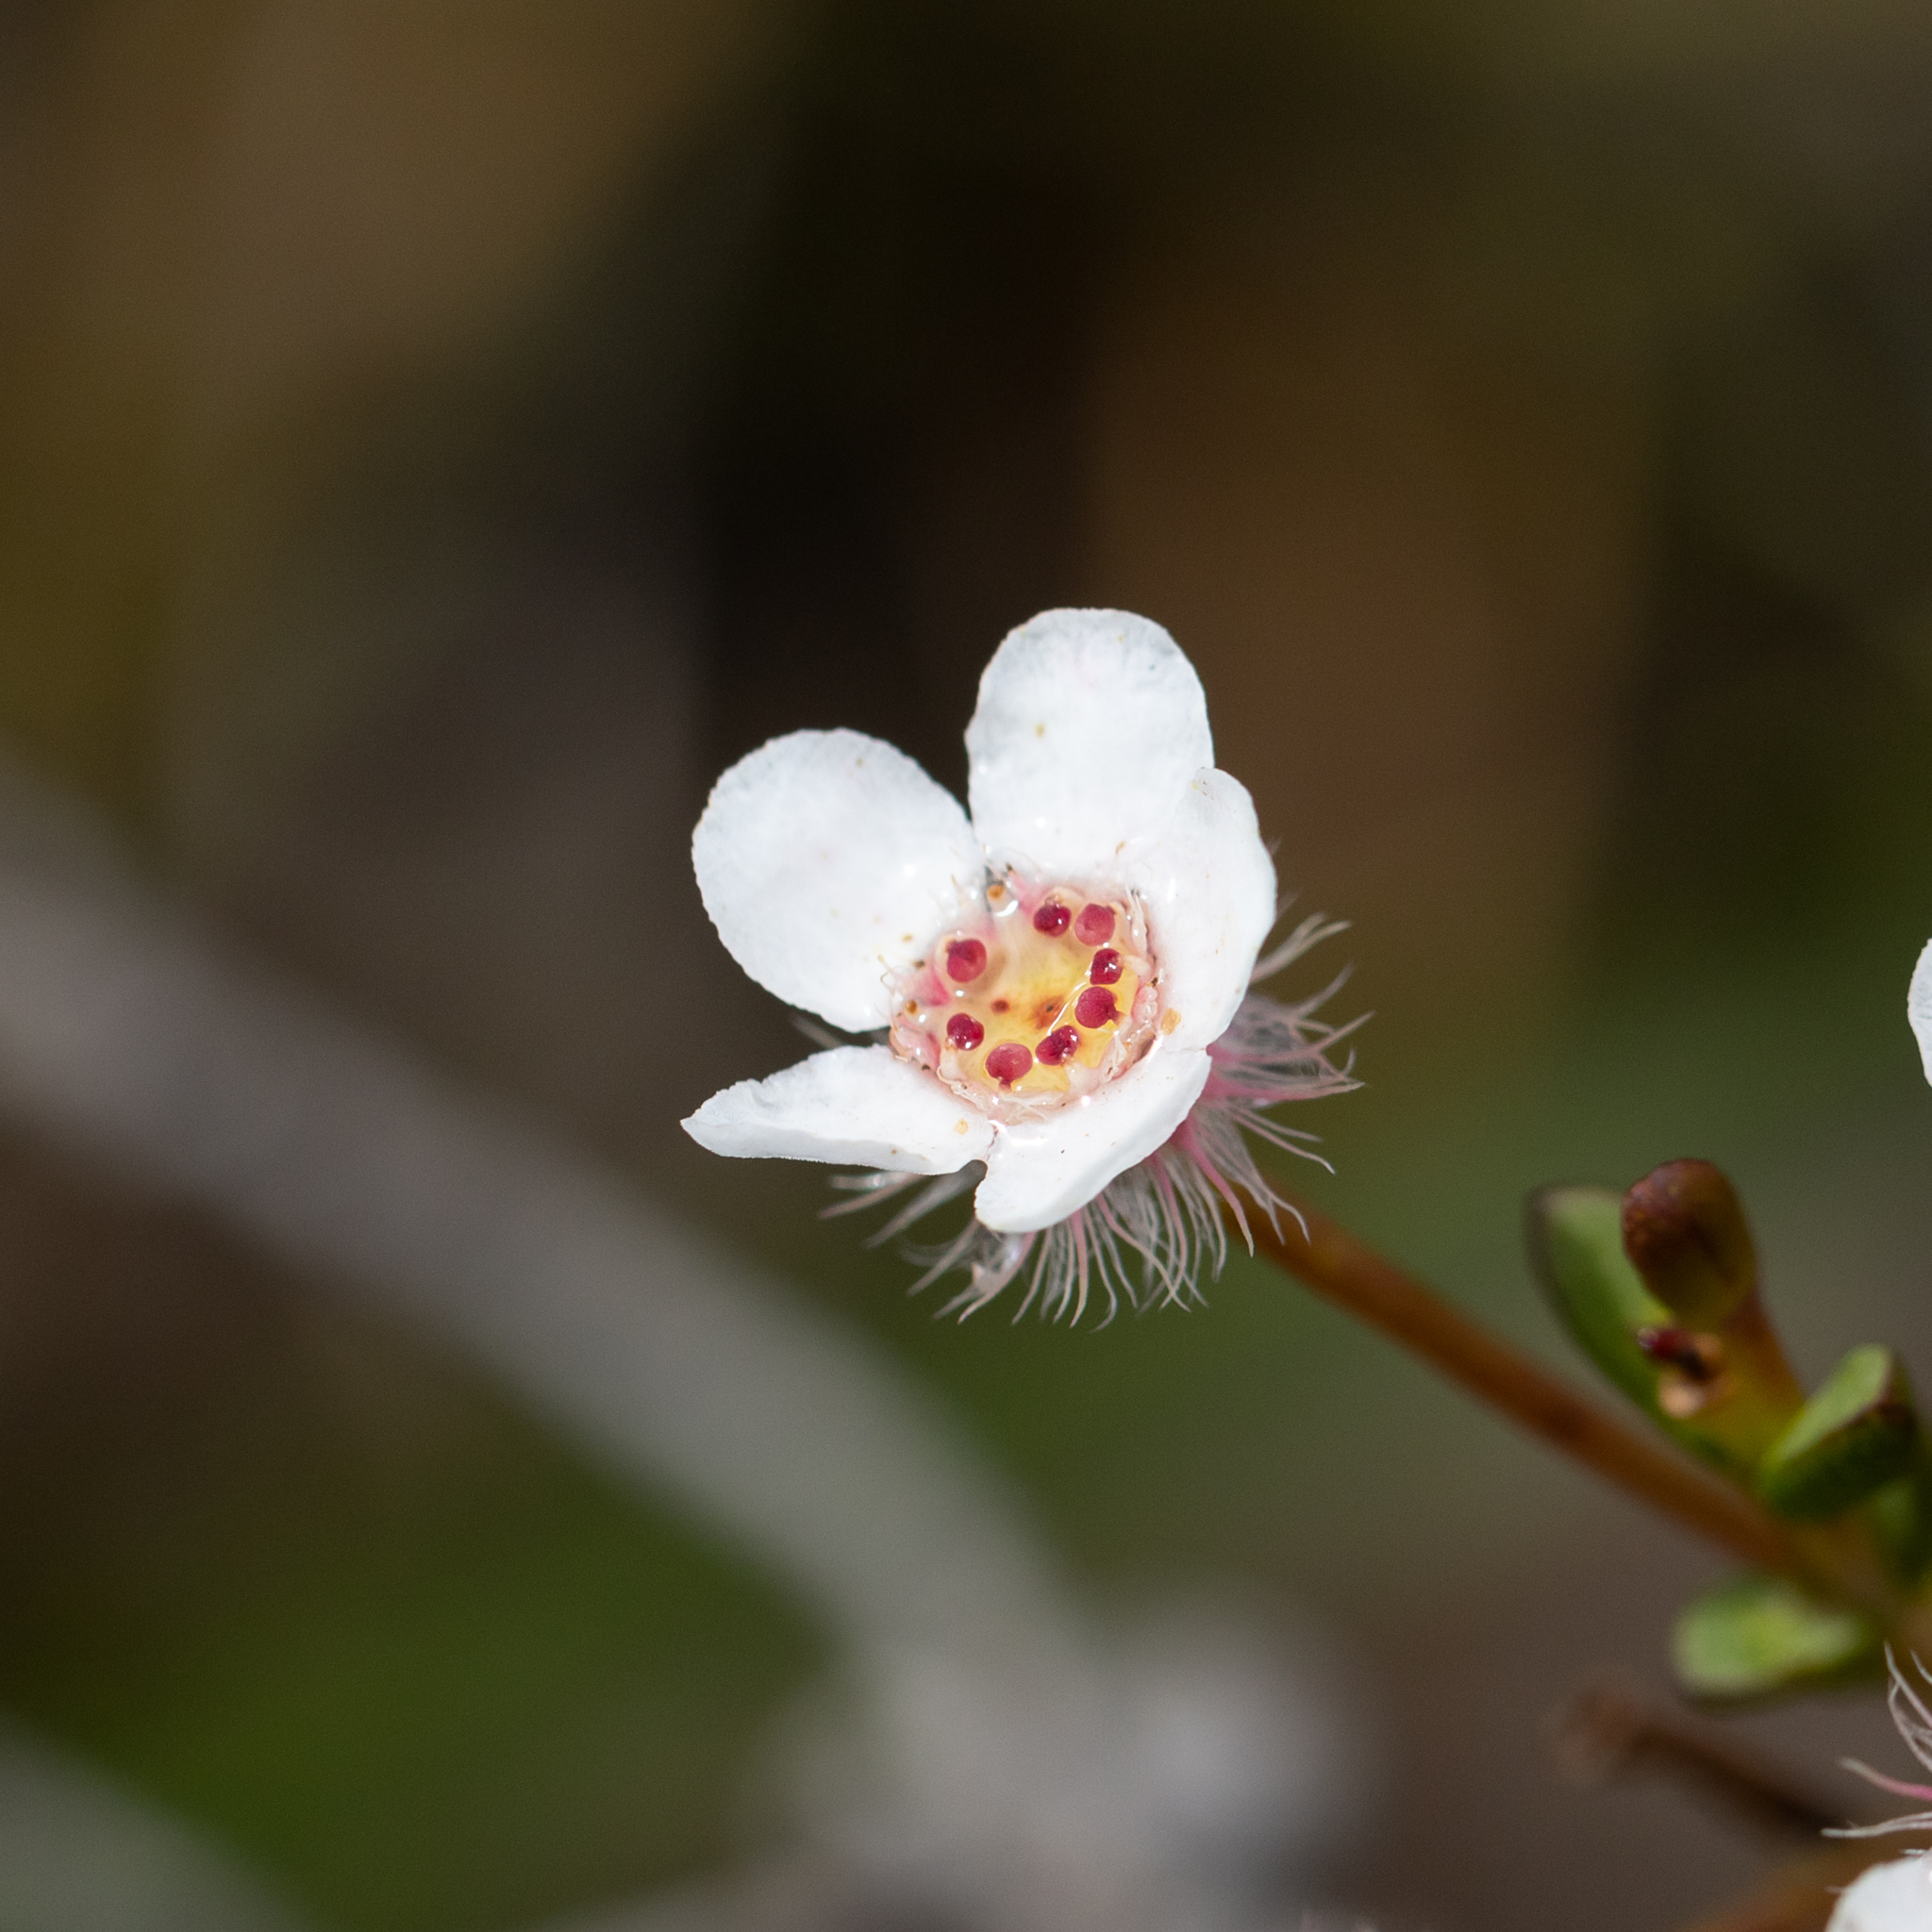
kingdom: Plantae
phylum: Tracheophyta
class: Magnoliopsida
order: Myrtales
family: Myrtaceae
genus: Verticordia
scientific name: Verticordia habrantha
